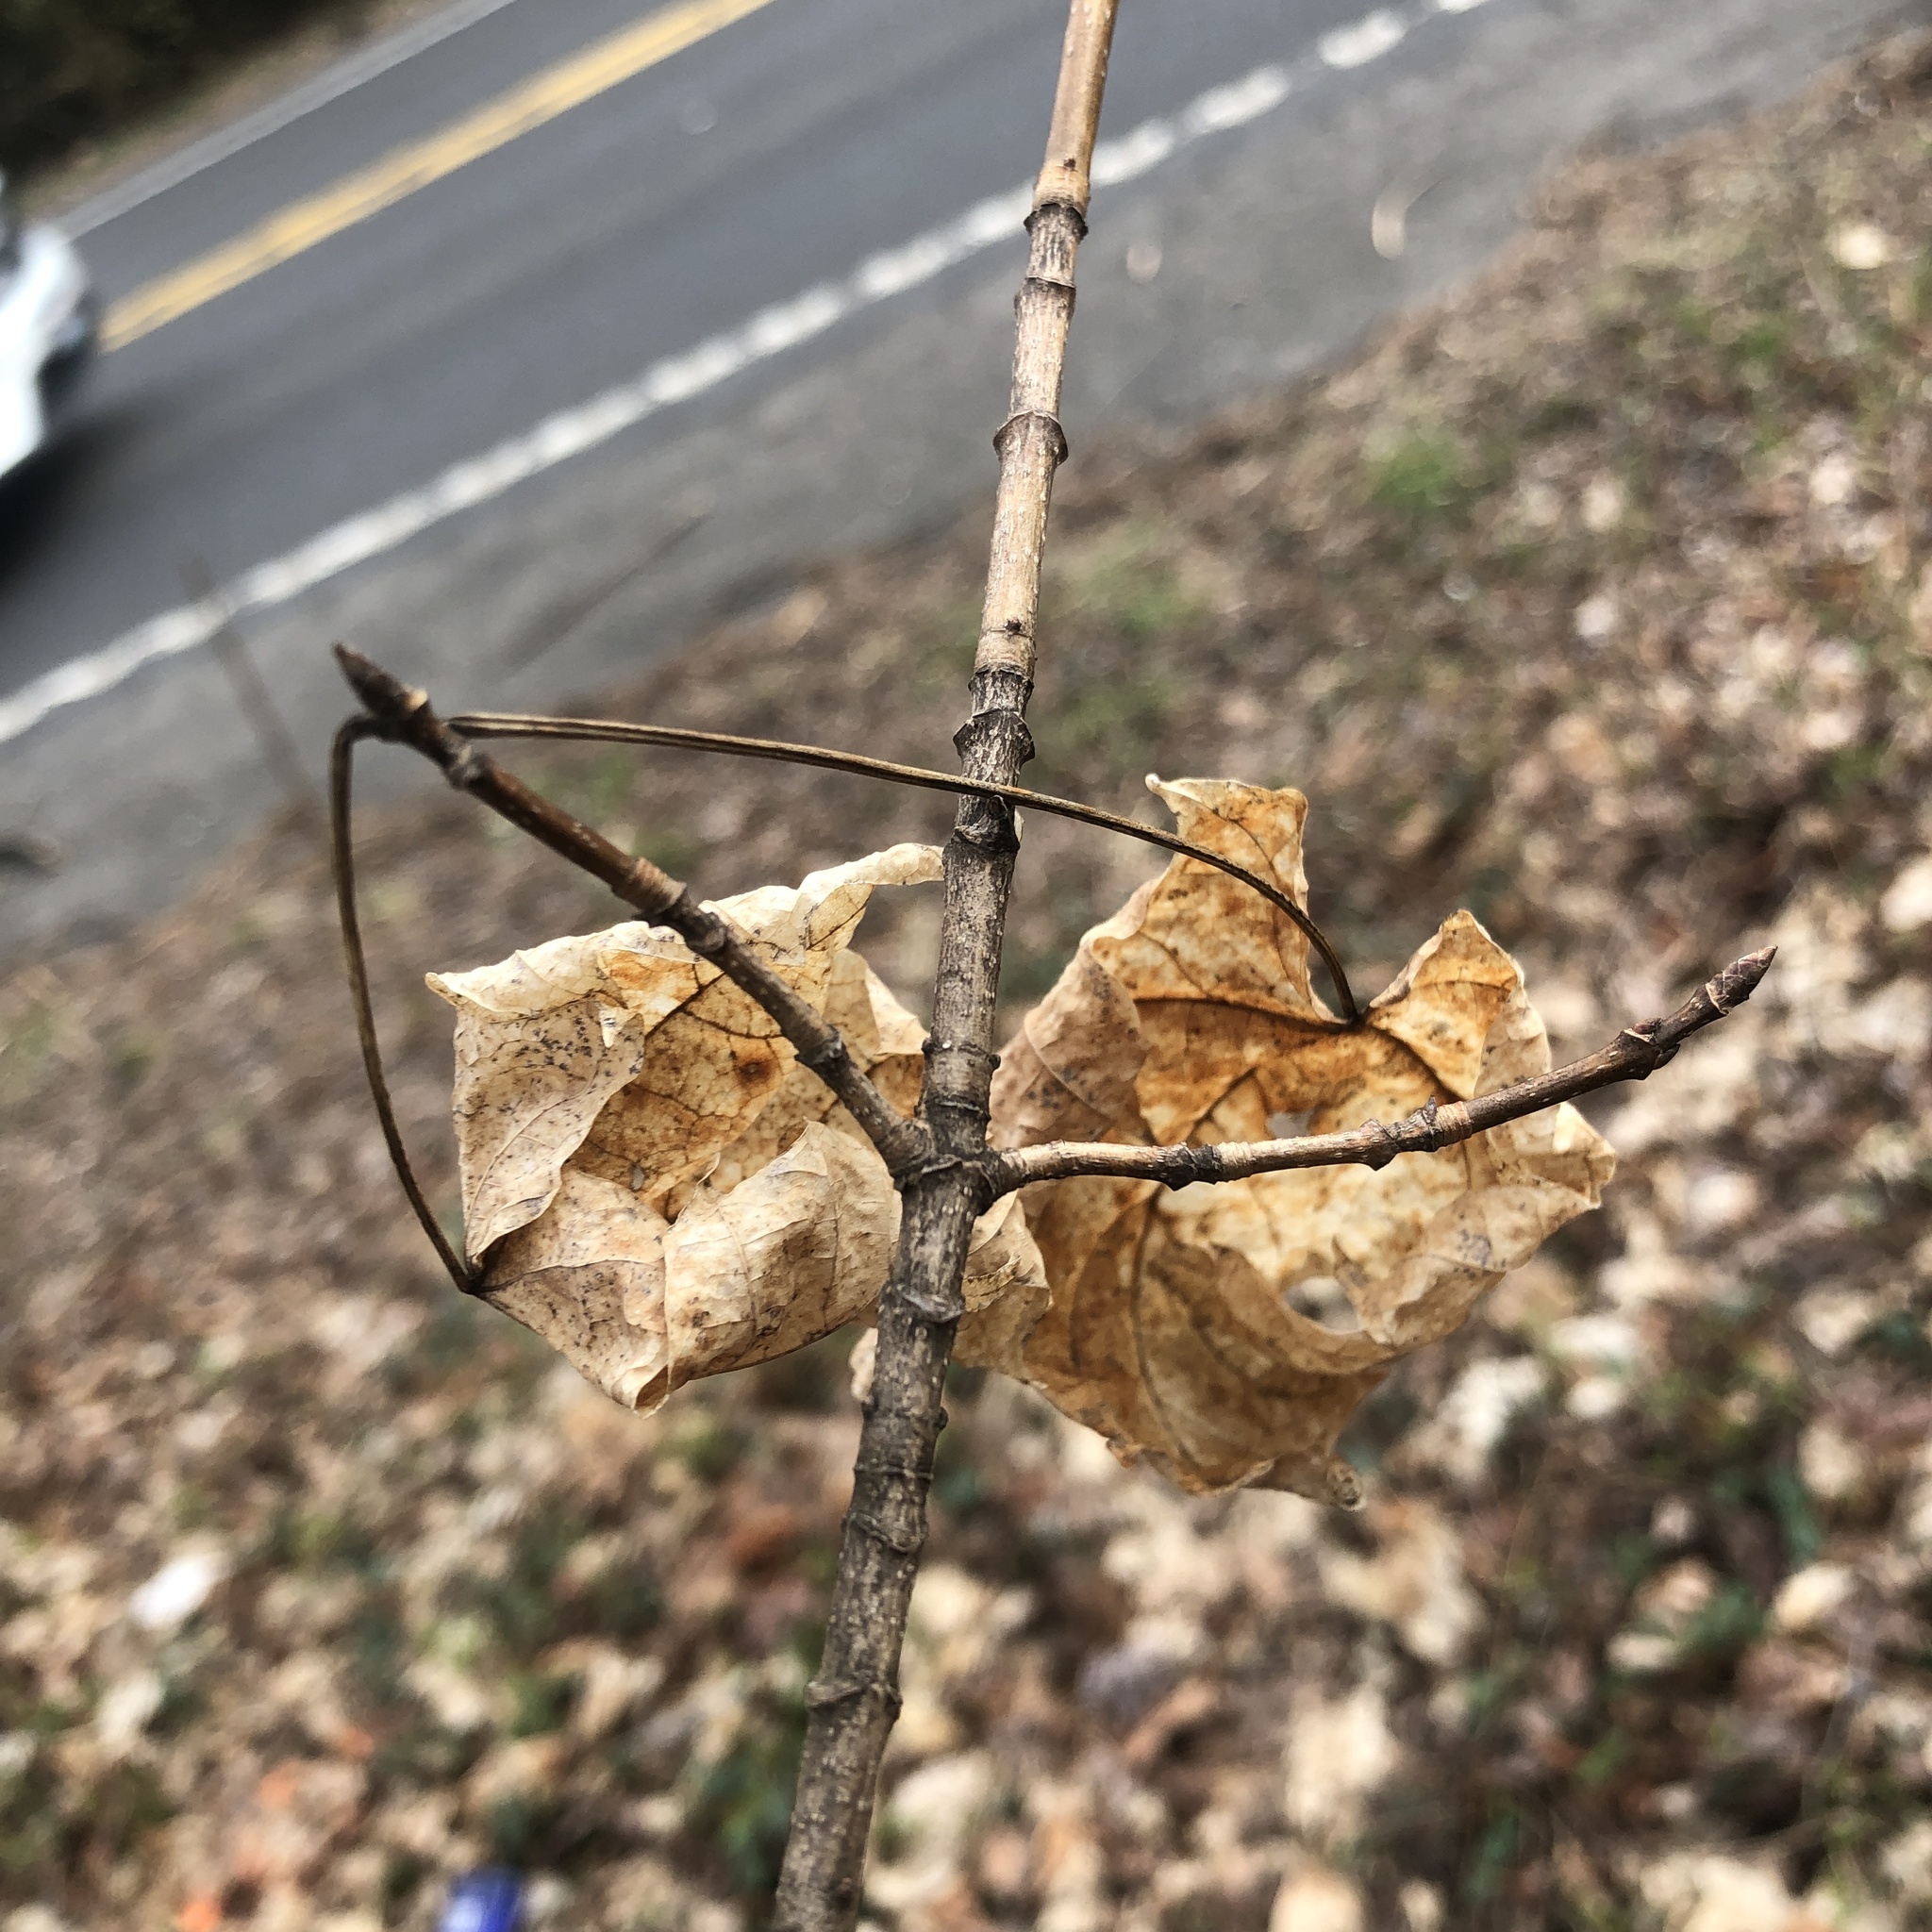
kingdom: Plantae
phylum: Tracheophyta
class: Magnoliopsida
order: Sapindales
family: Sapindaceae
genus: Acer
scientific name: Acer saccharum
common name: Sugar maple
